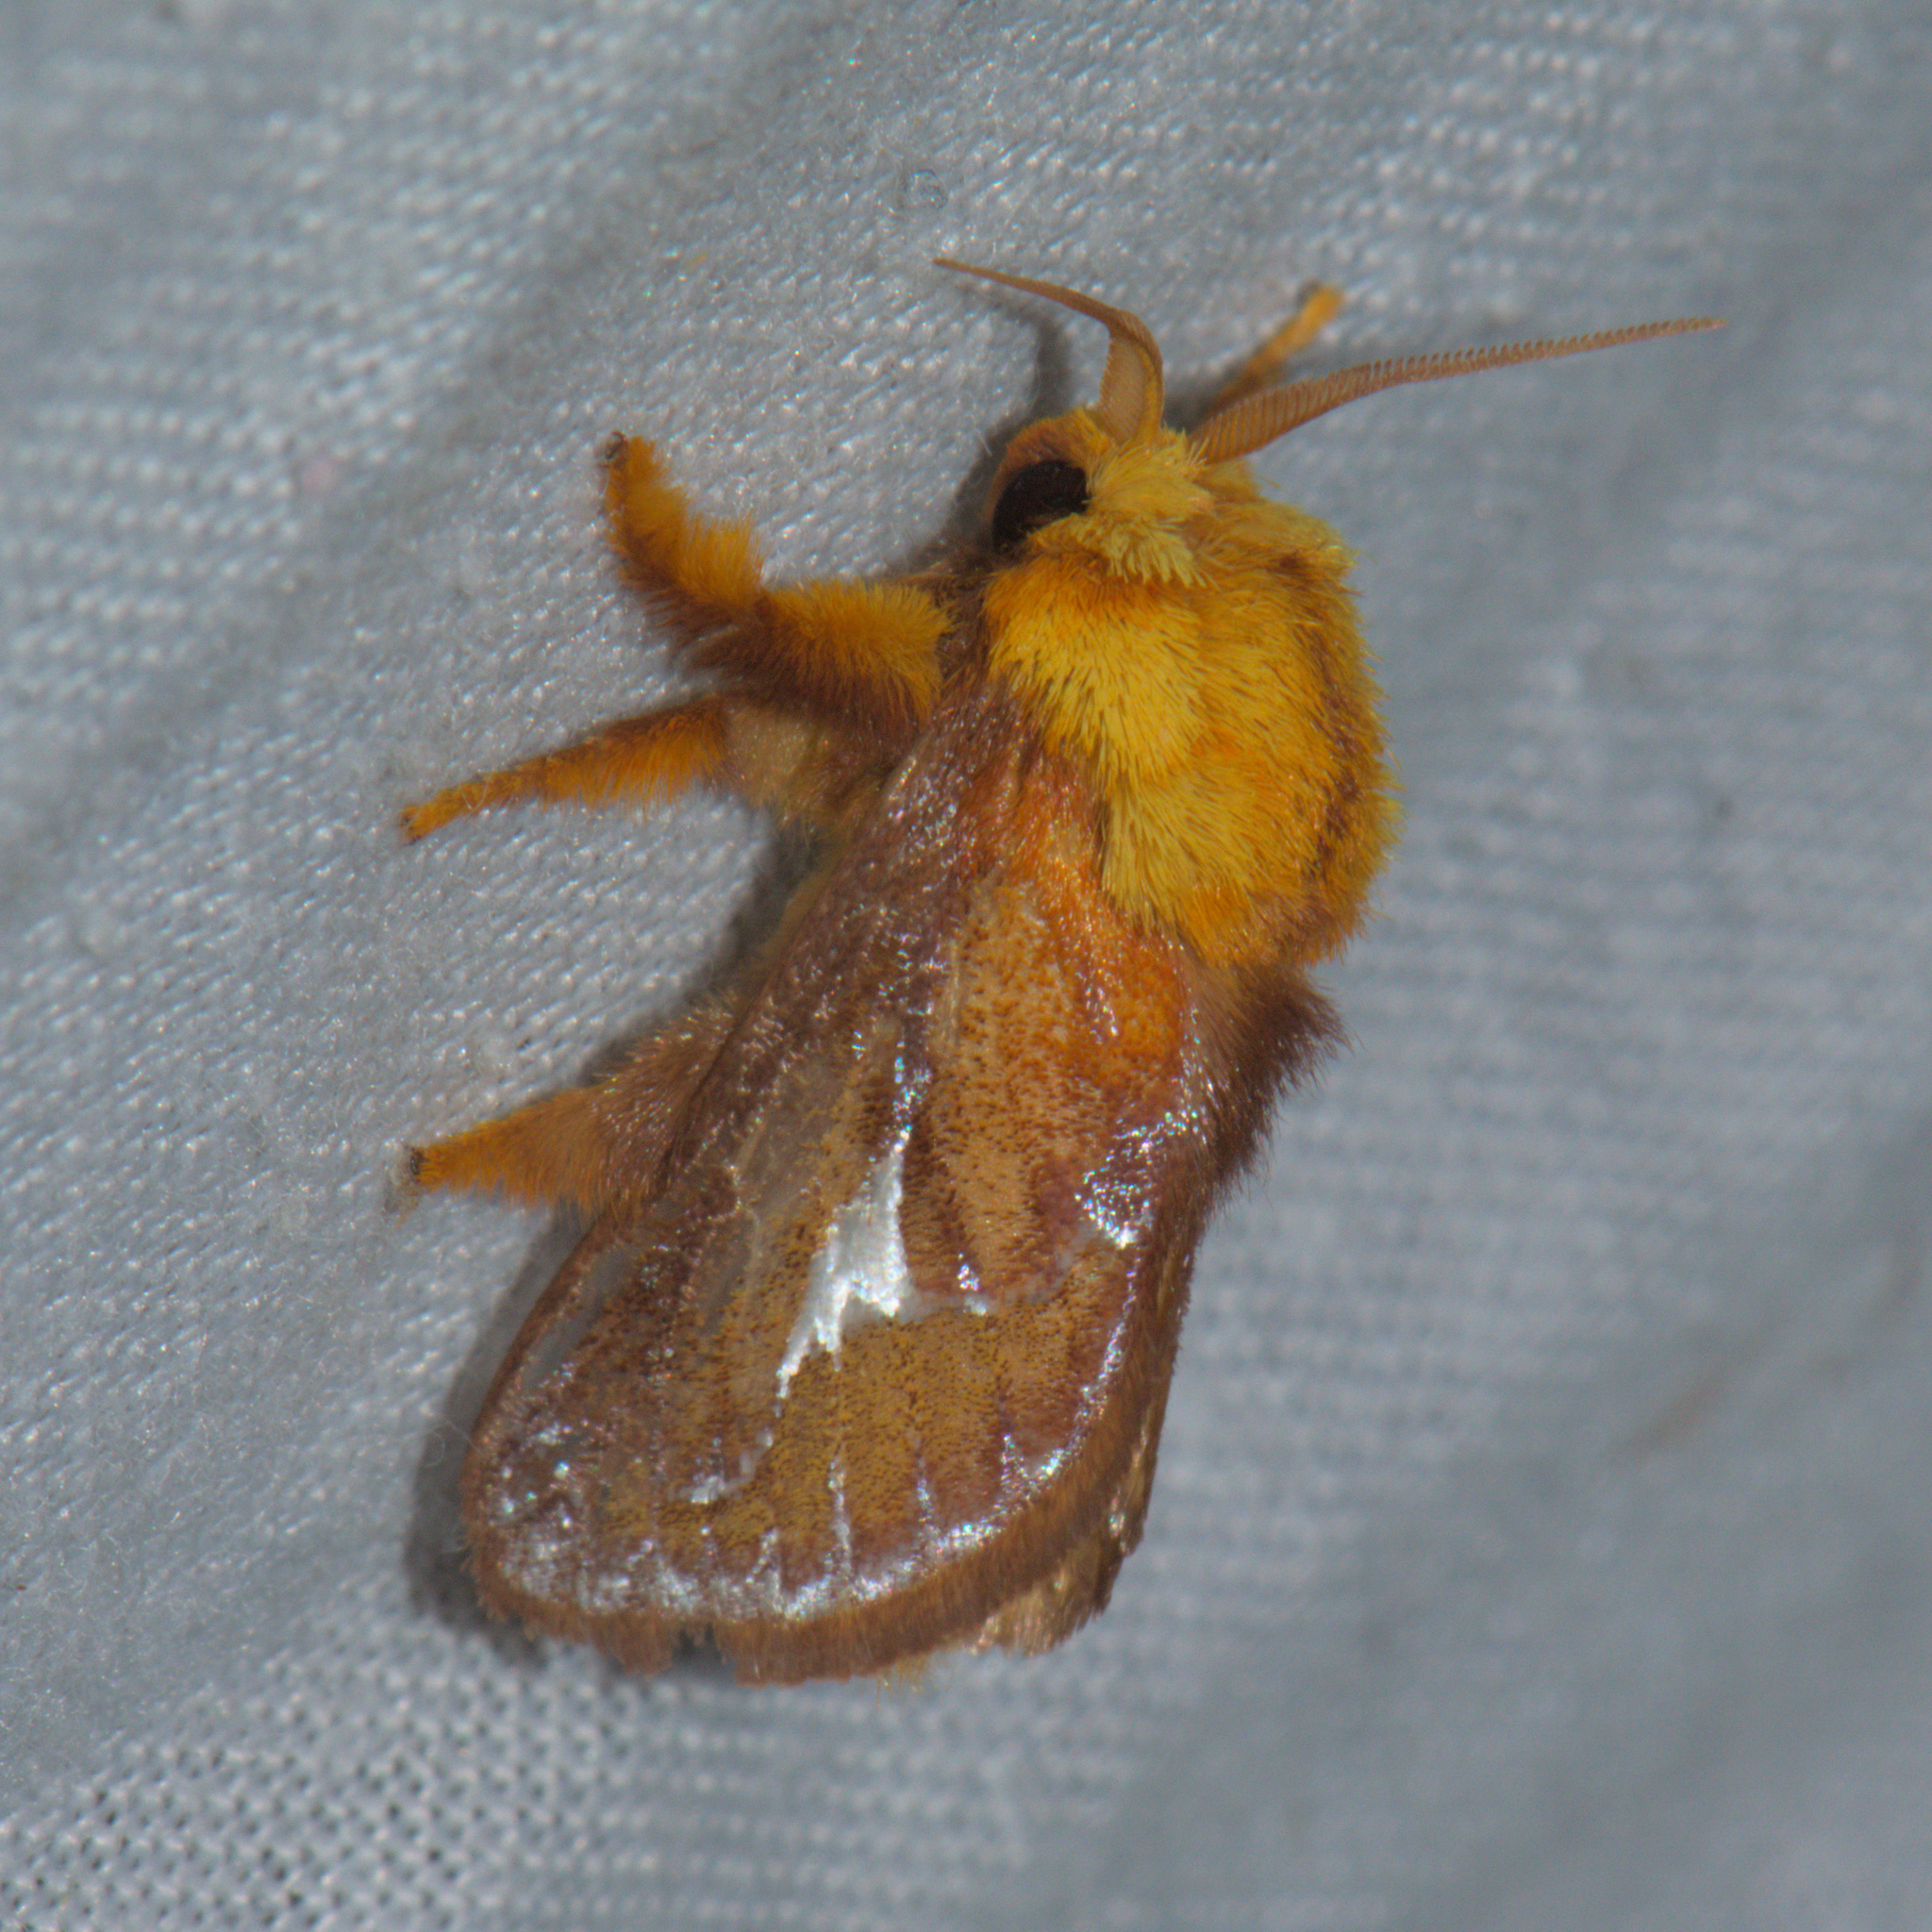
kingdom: Animalia
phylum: Arthropoda
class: Insecta
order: Lepidoptera
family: Limacodidae
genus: Miresa
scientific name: Miresa bracteata
